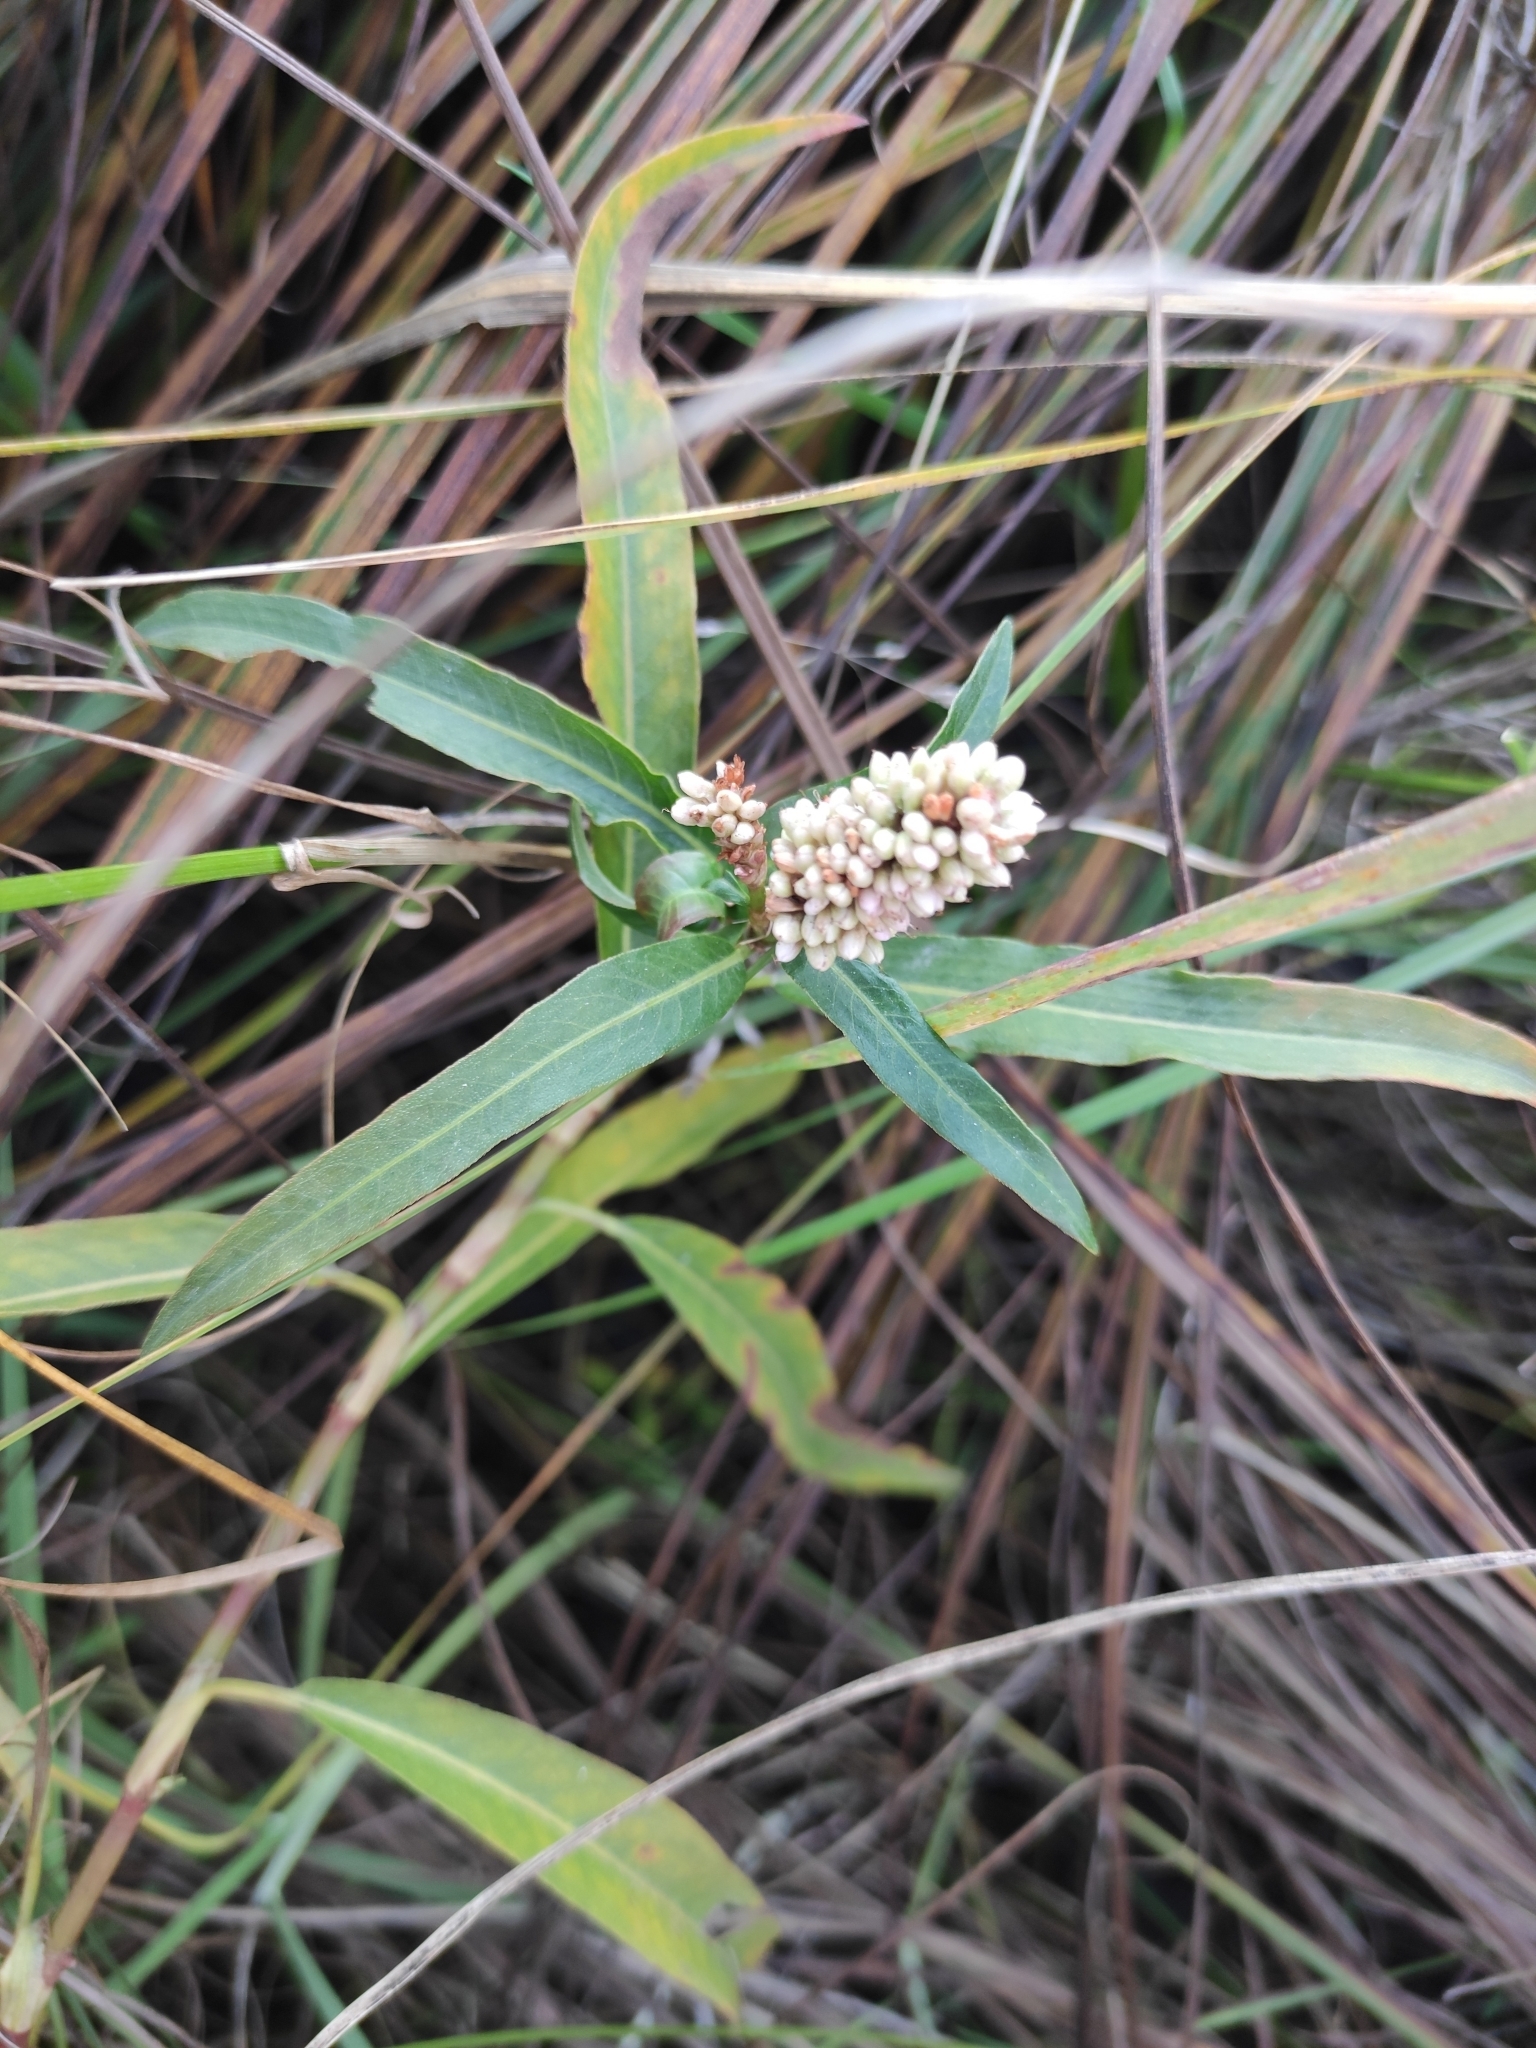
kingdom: Plantae
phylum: Tracheophyta
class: Magnoliopsida
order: Caryophyllales
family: Polygonaceae
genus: Persicaria
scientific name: Persicaria amphibia
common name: Amphibious bistort
